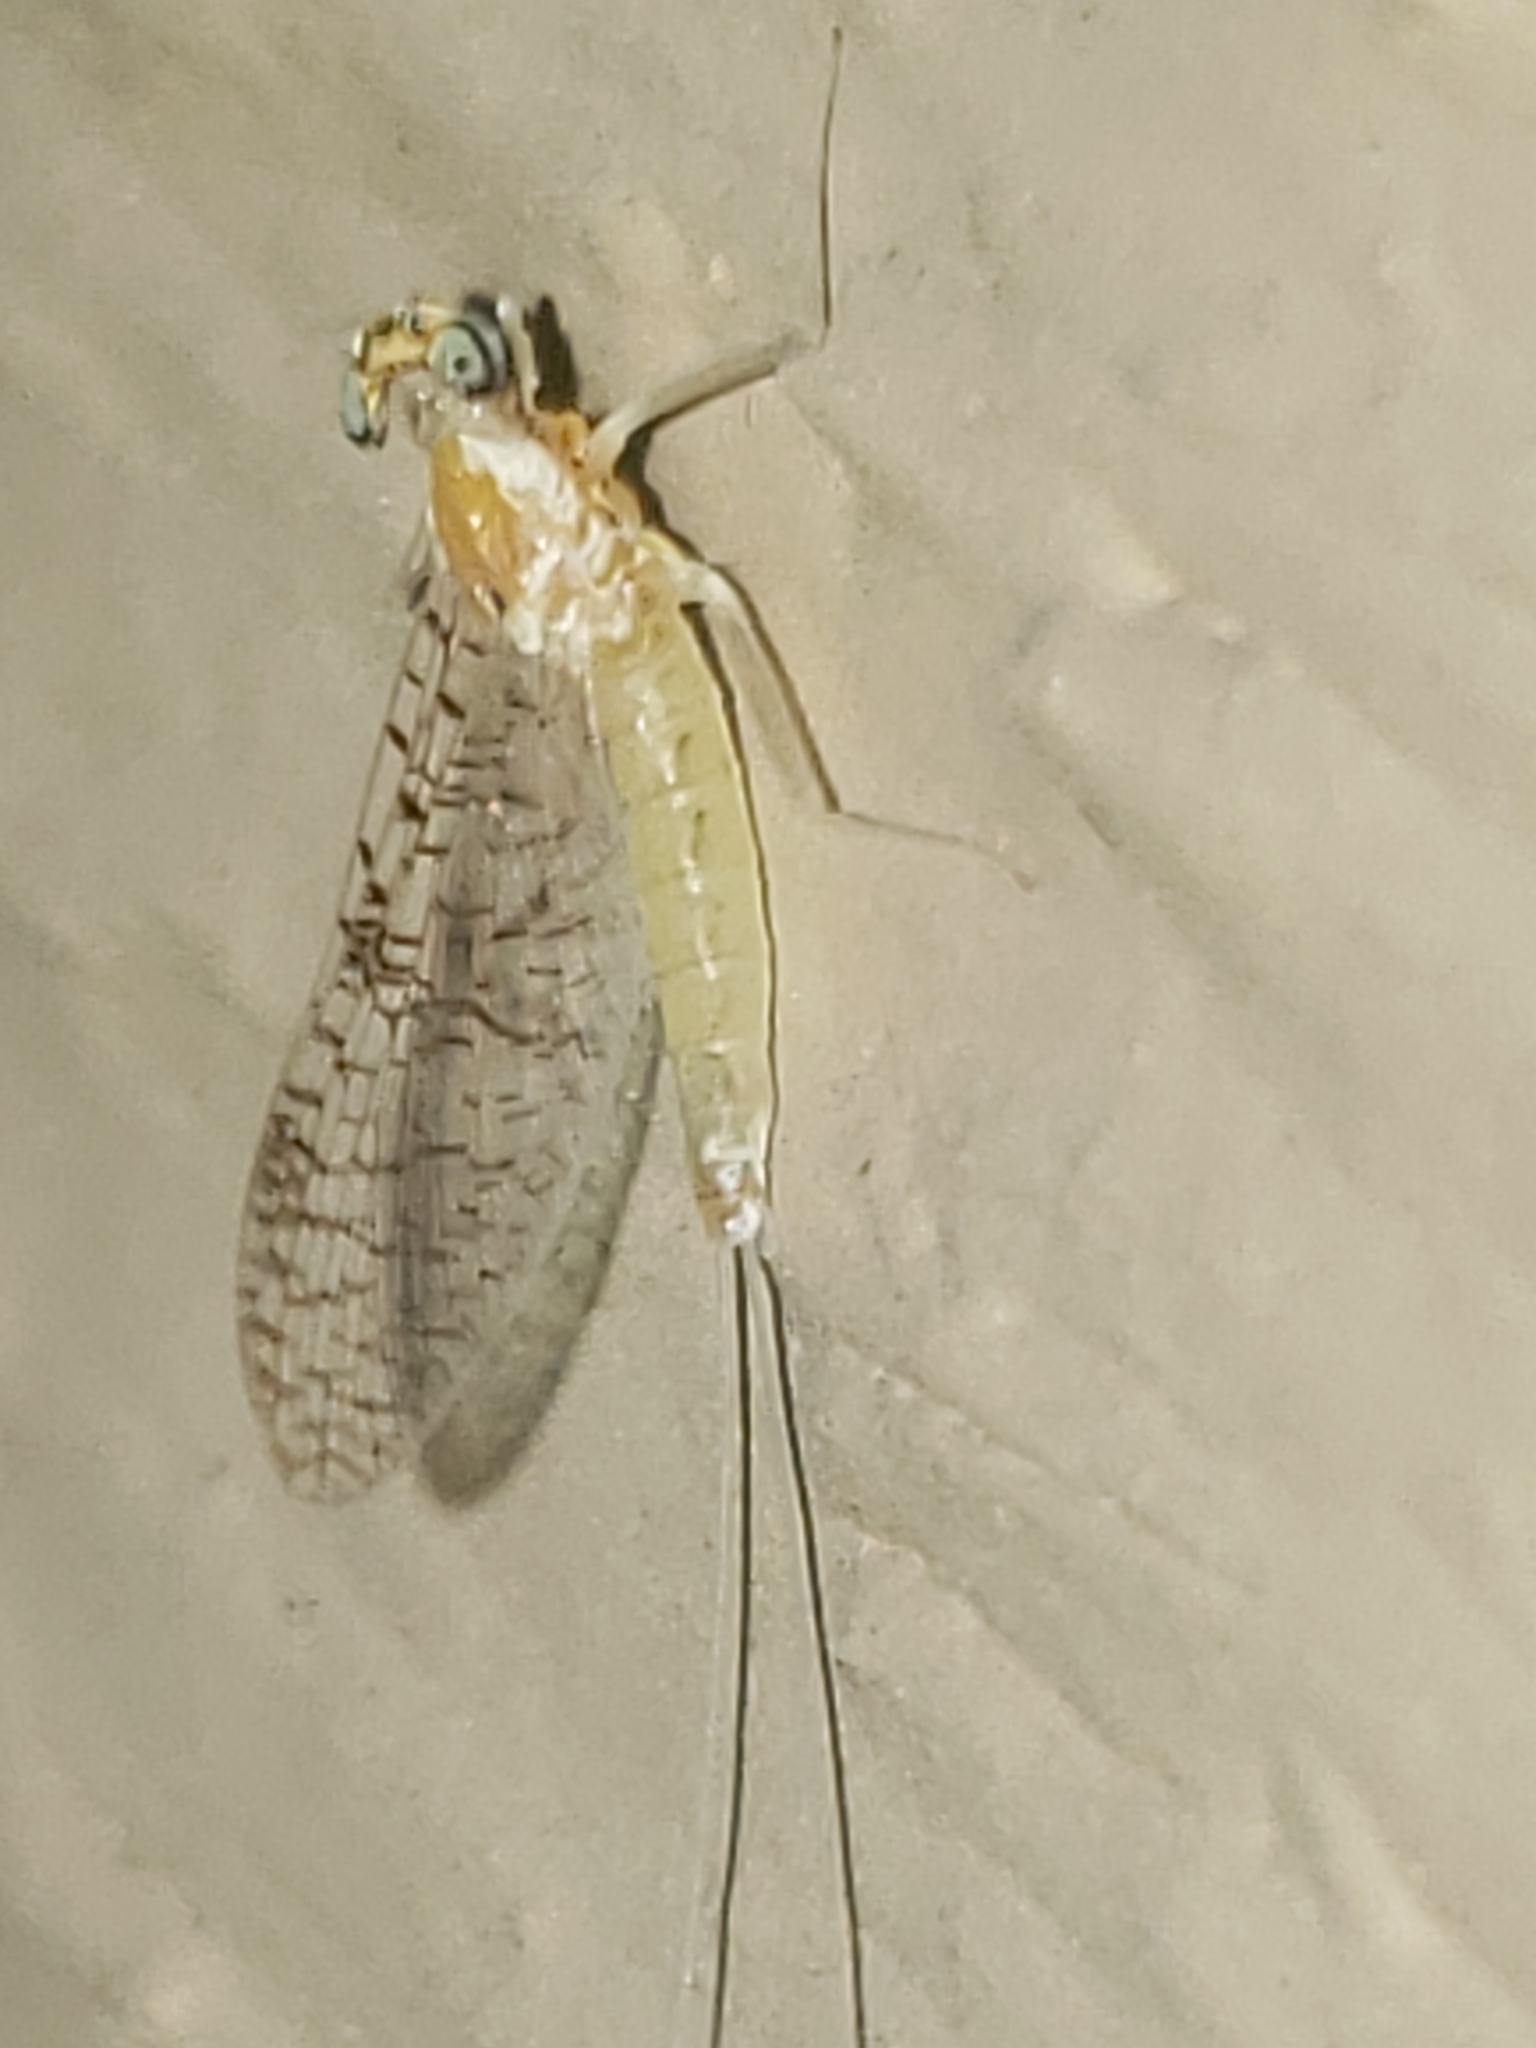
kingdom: Animalia
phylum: Arthropoda
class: Insecta
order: Ephemeroptera
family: Heptageniidae
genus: Leucrocuta
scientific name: Leucrocuta thetis
